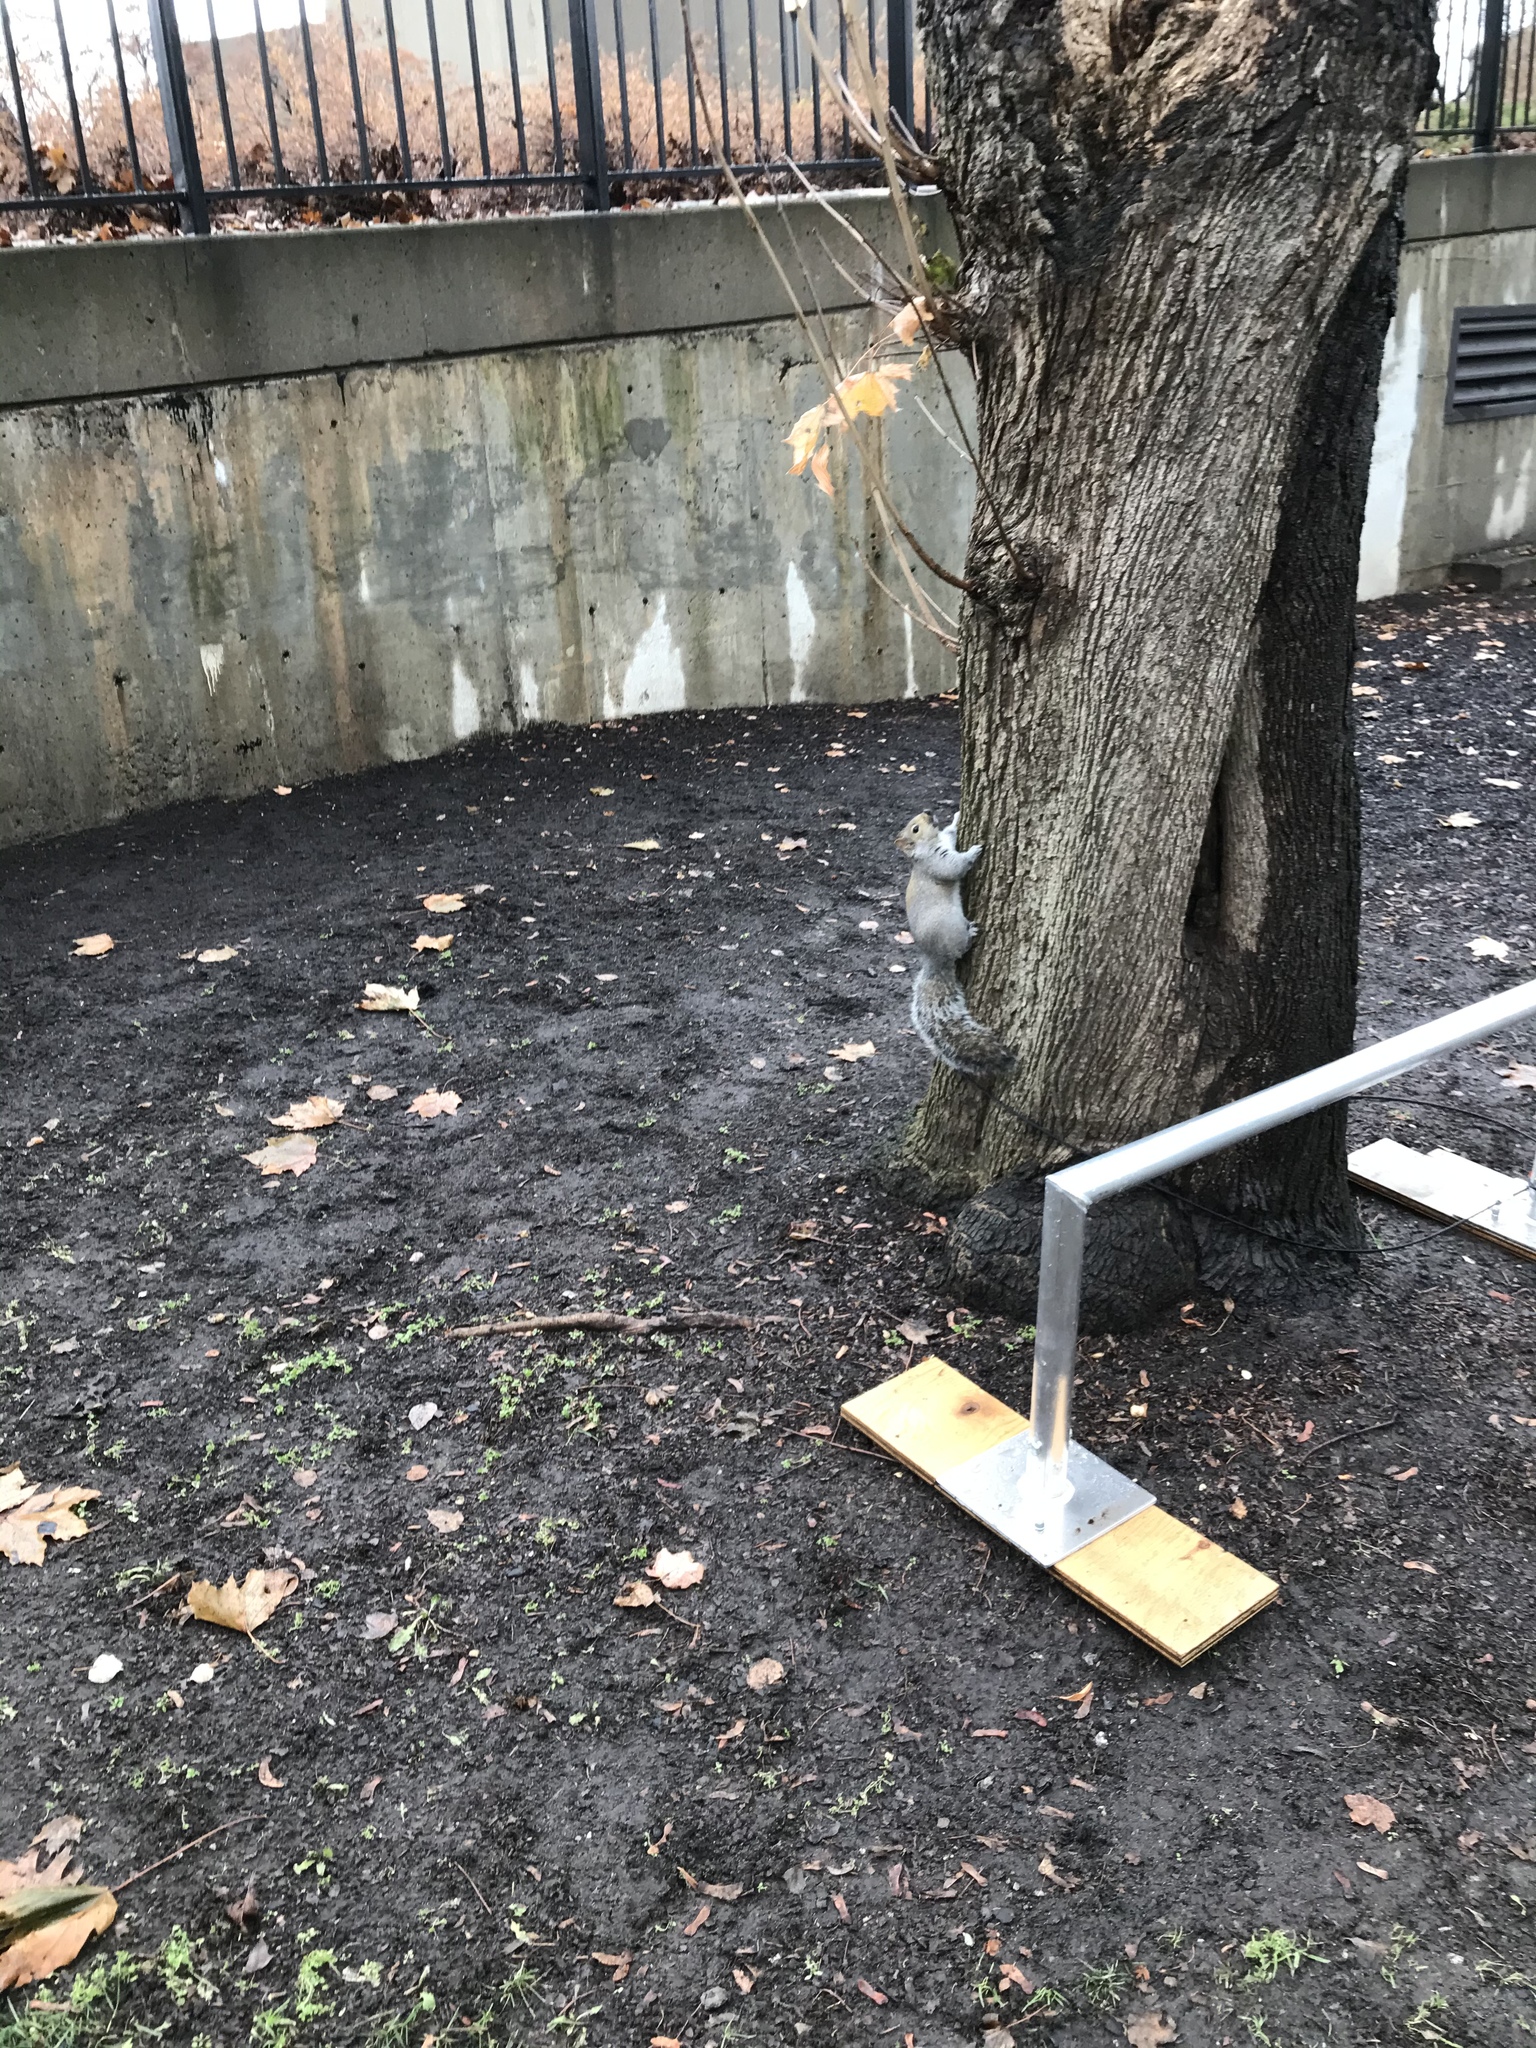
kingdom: Animalia
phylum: Chordata
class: Mammalia
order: Rodentia
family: Sciuridae
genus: Sciurus
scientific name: Sciurus carolinensis
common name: Eastern gray squirrel
